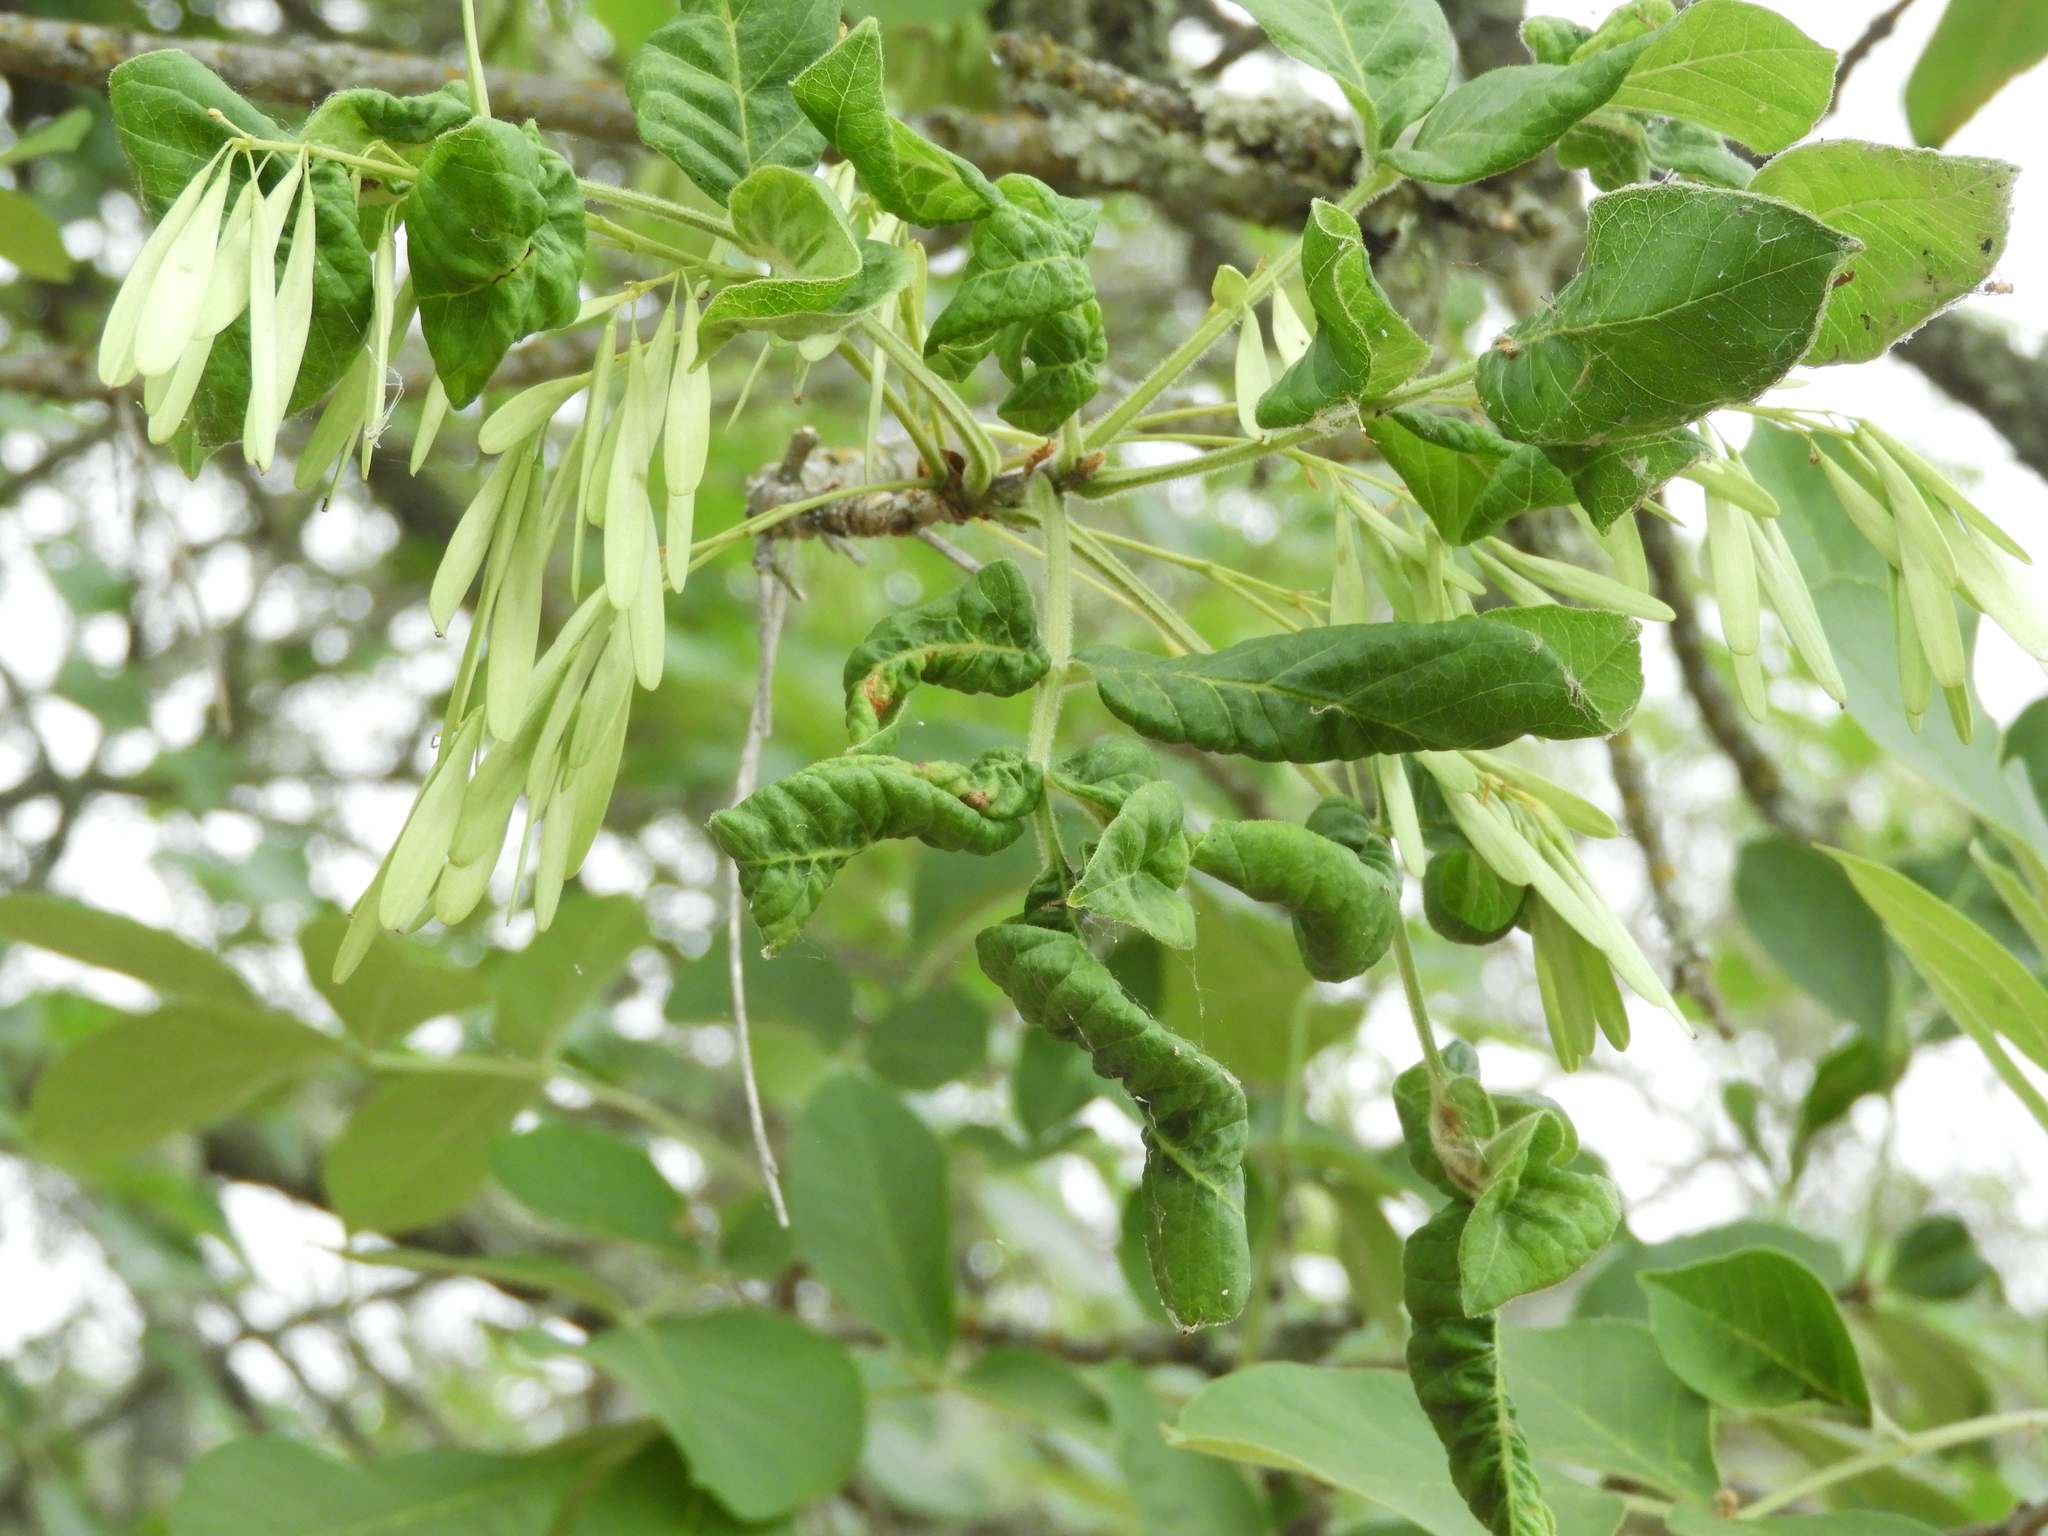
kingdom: Animalia
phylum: Arthropoda
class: Insecta
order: Hemiptera
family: Aphididae
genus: Prociphilus
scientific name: Prociphilus fraxinifolii
